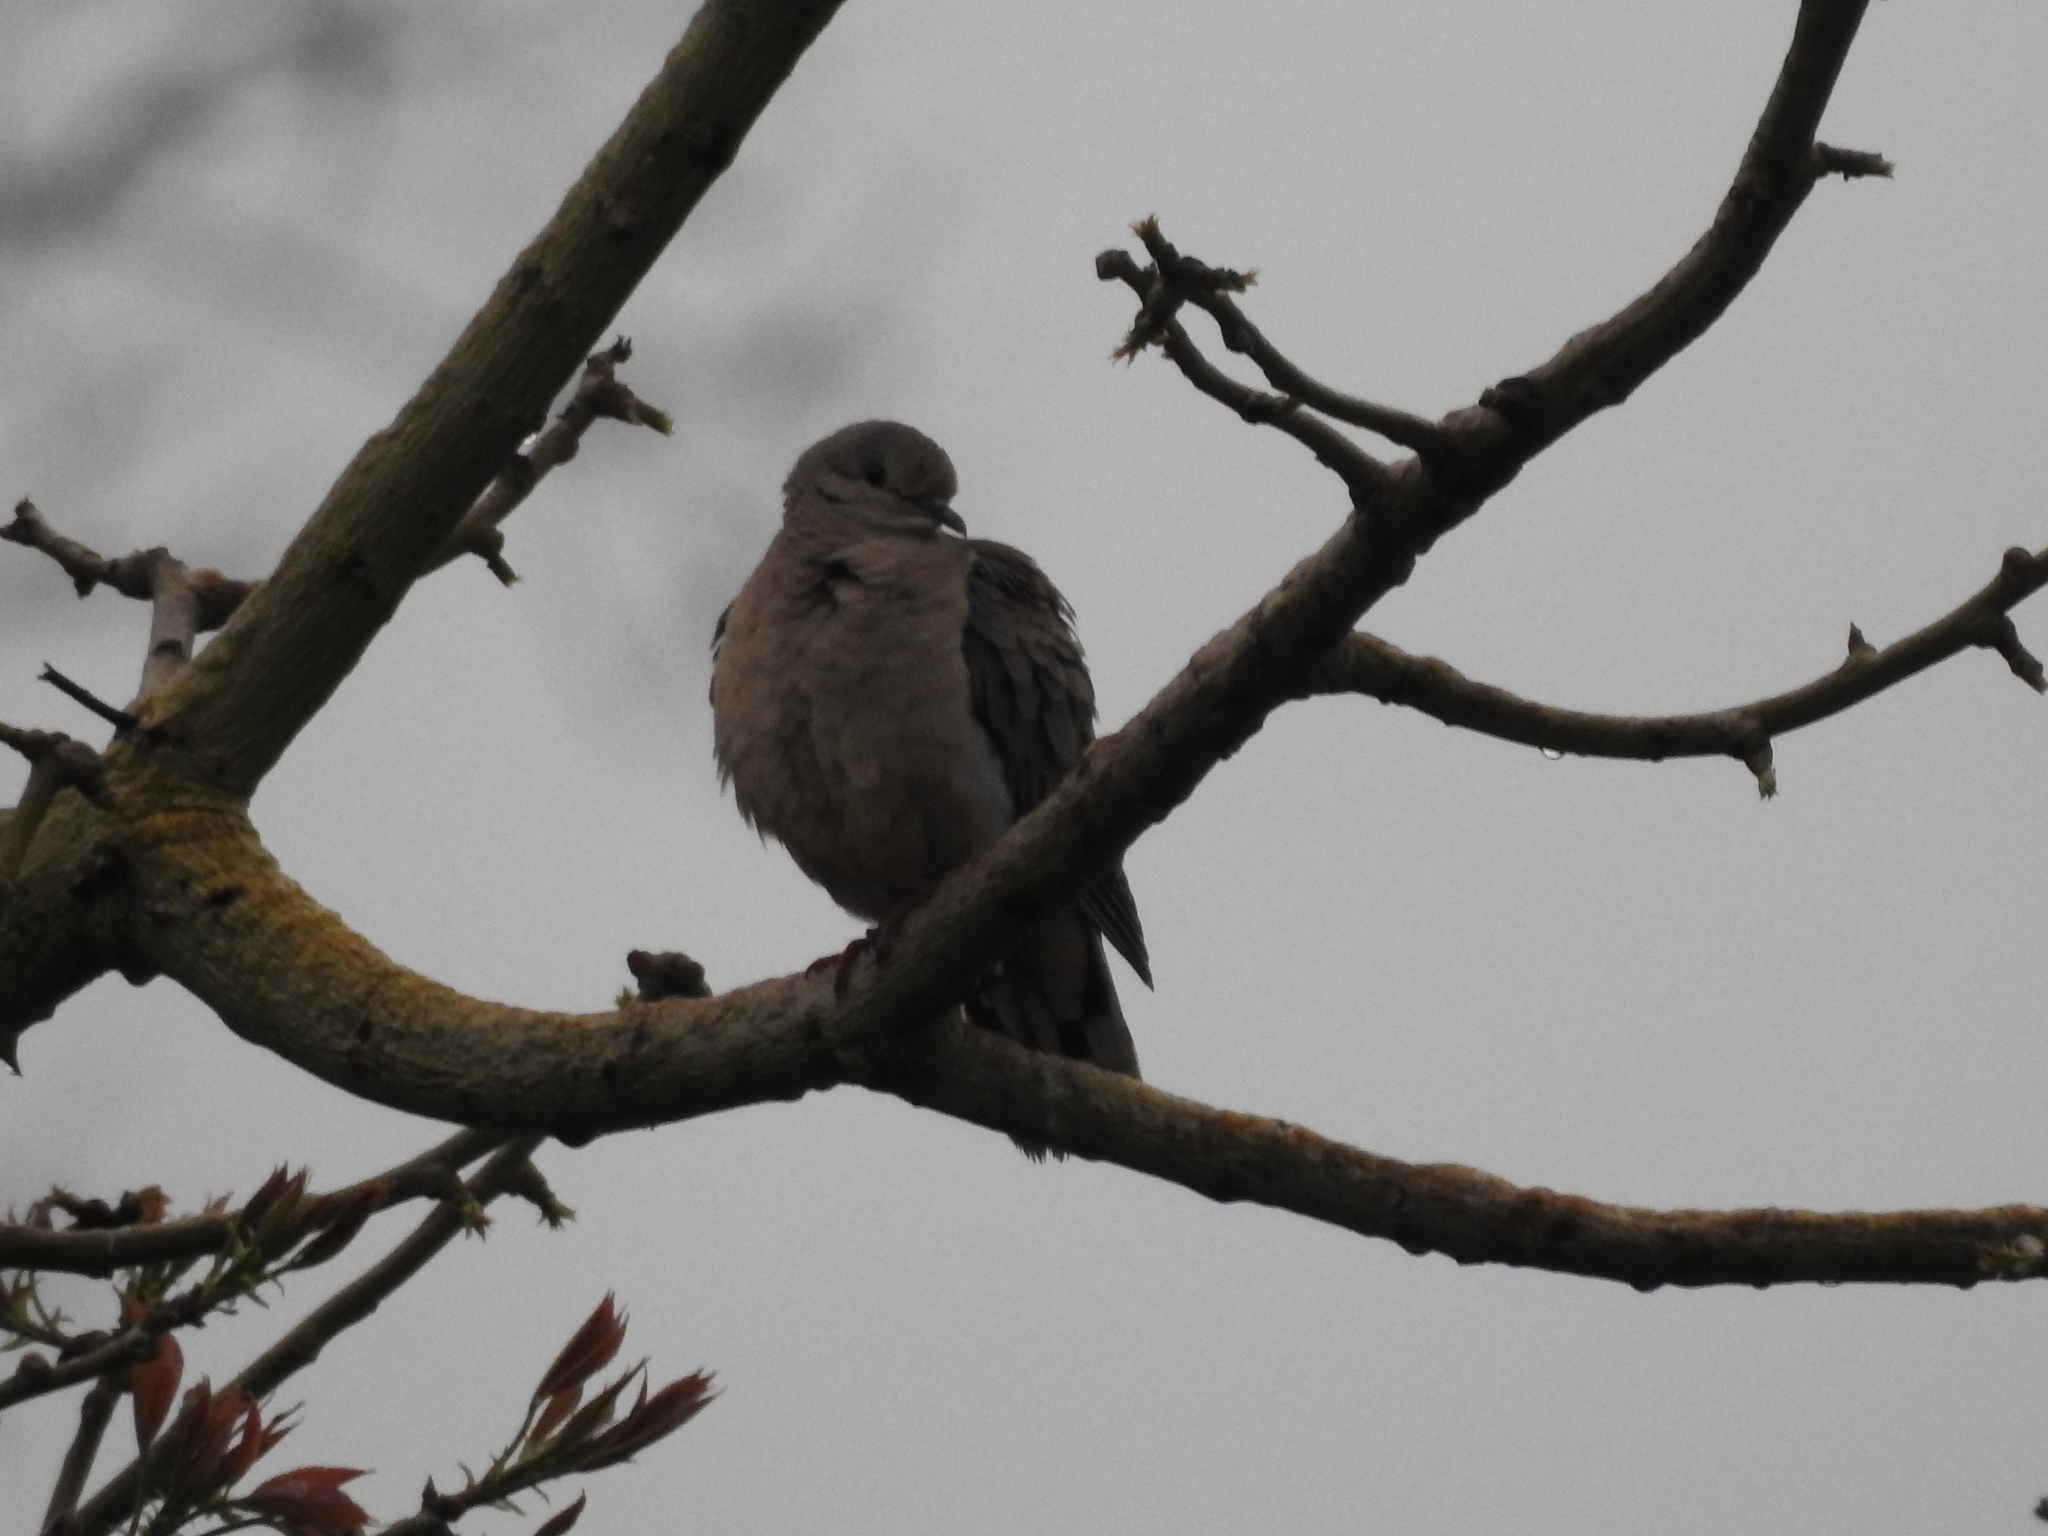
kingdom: Animalia
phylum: Chordata
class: Aves
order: Columbiformes
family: Columbidae
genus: Zenaida
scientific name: Zenaida auriculata
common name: Eared dove
